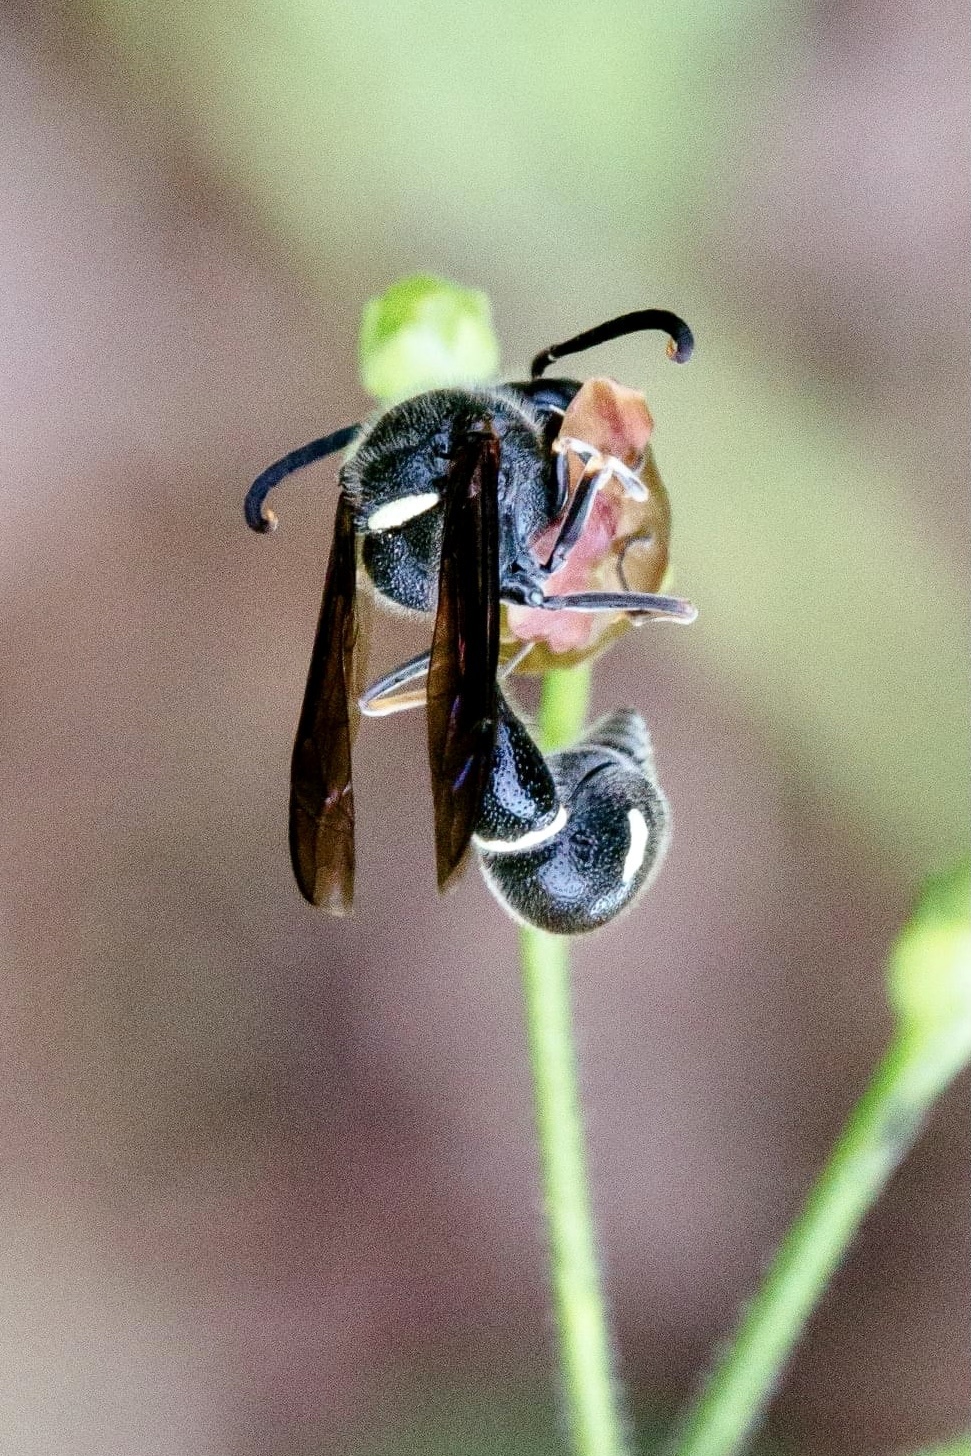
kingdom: Animalia
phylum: Arthropoda
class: Insecta
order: Hymenoptera
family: Vespidae
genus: Eumenes
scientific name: Eumenes fraternus
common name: Fraternal potter wasp
